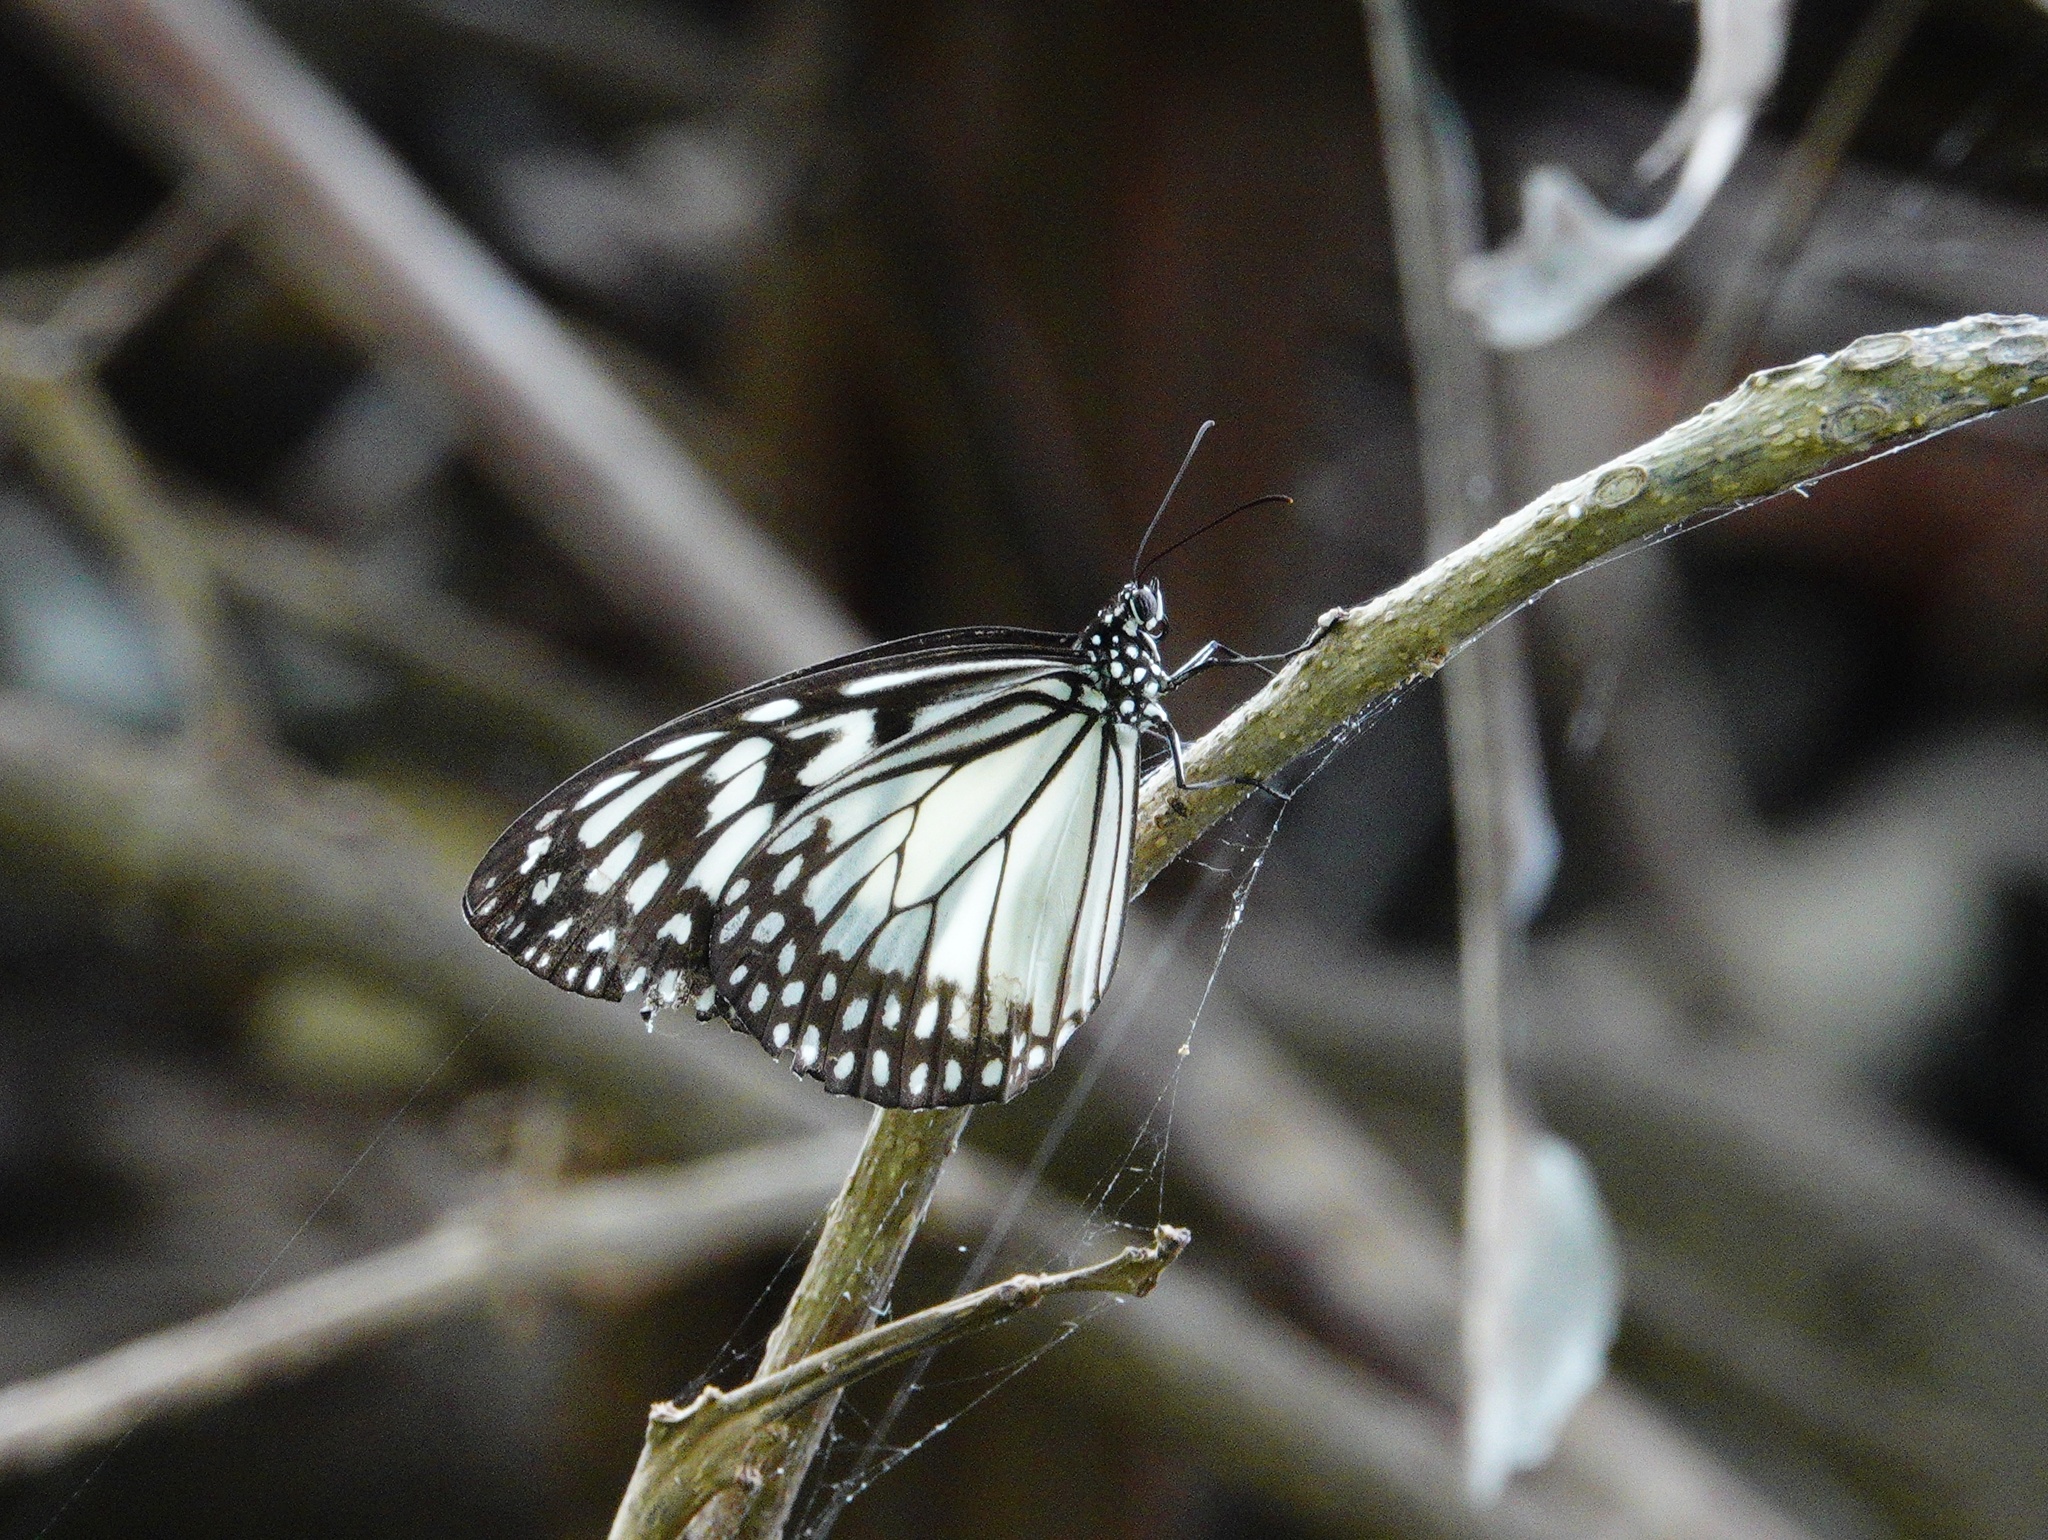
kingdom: Animalia
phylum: Arthropoda
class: Insecta
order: Lepidoptera
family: Nymphalidae
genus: Ideopsis
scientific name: Ideopsis juventa
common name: Grey glassy tiger
